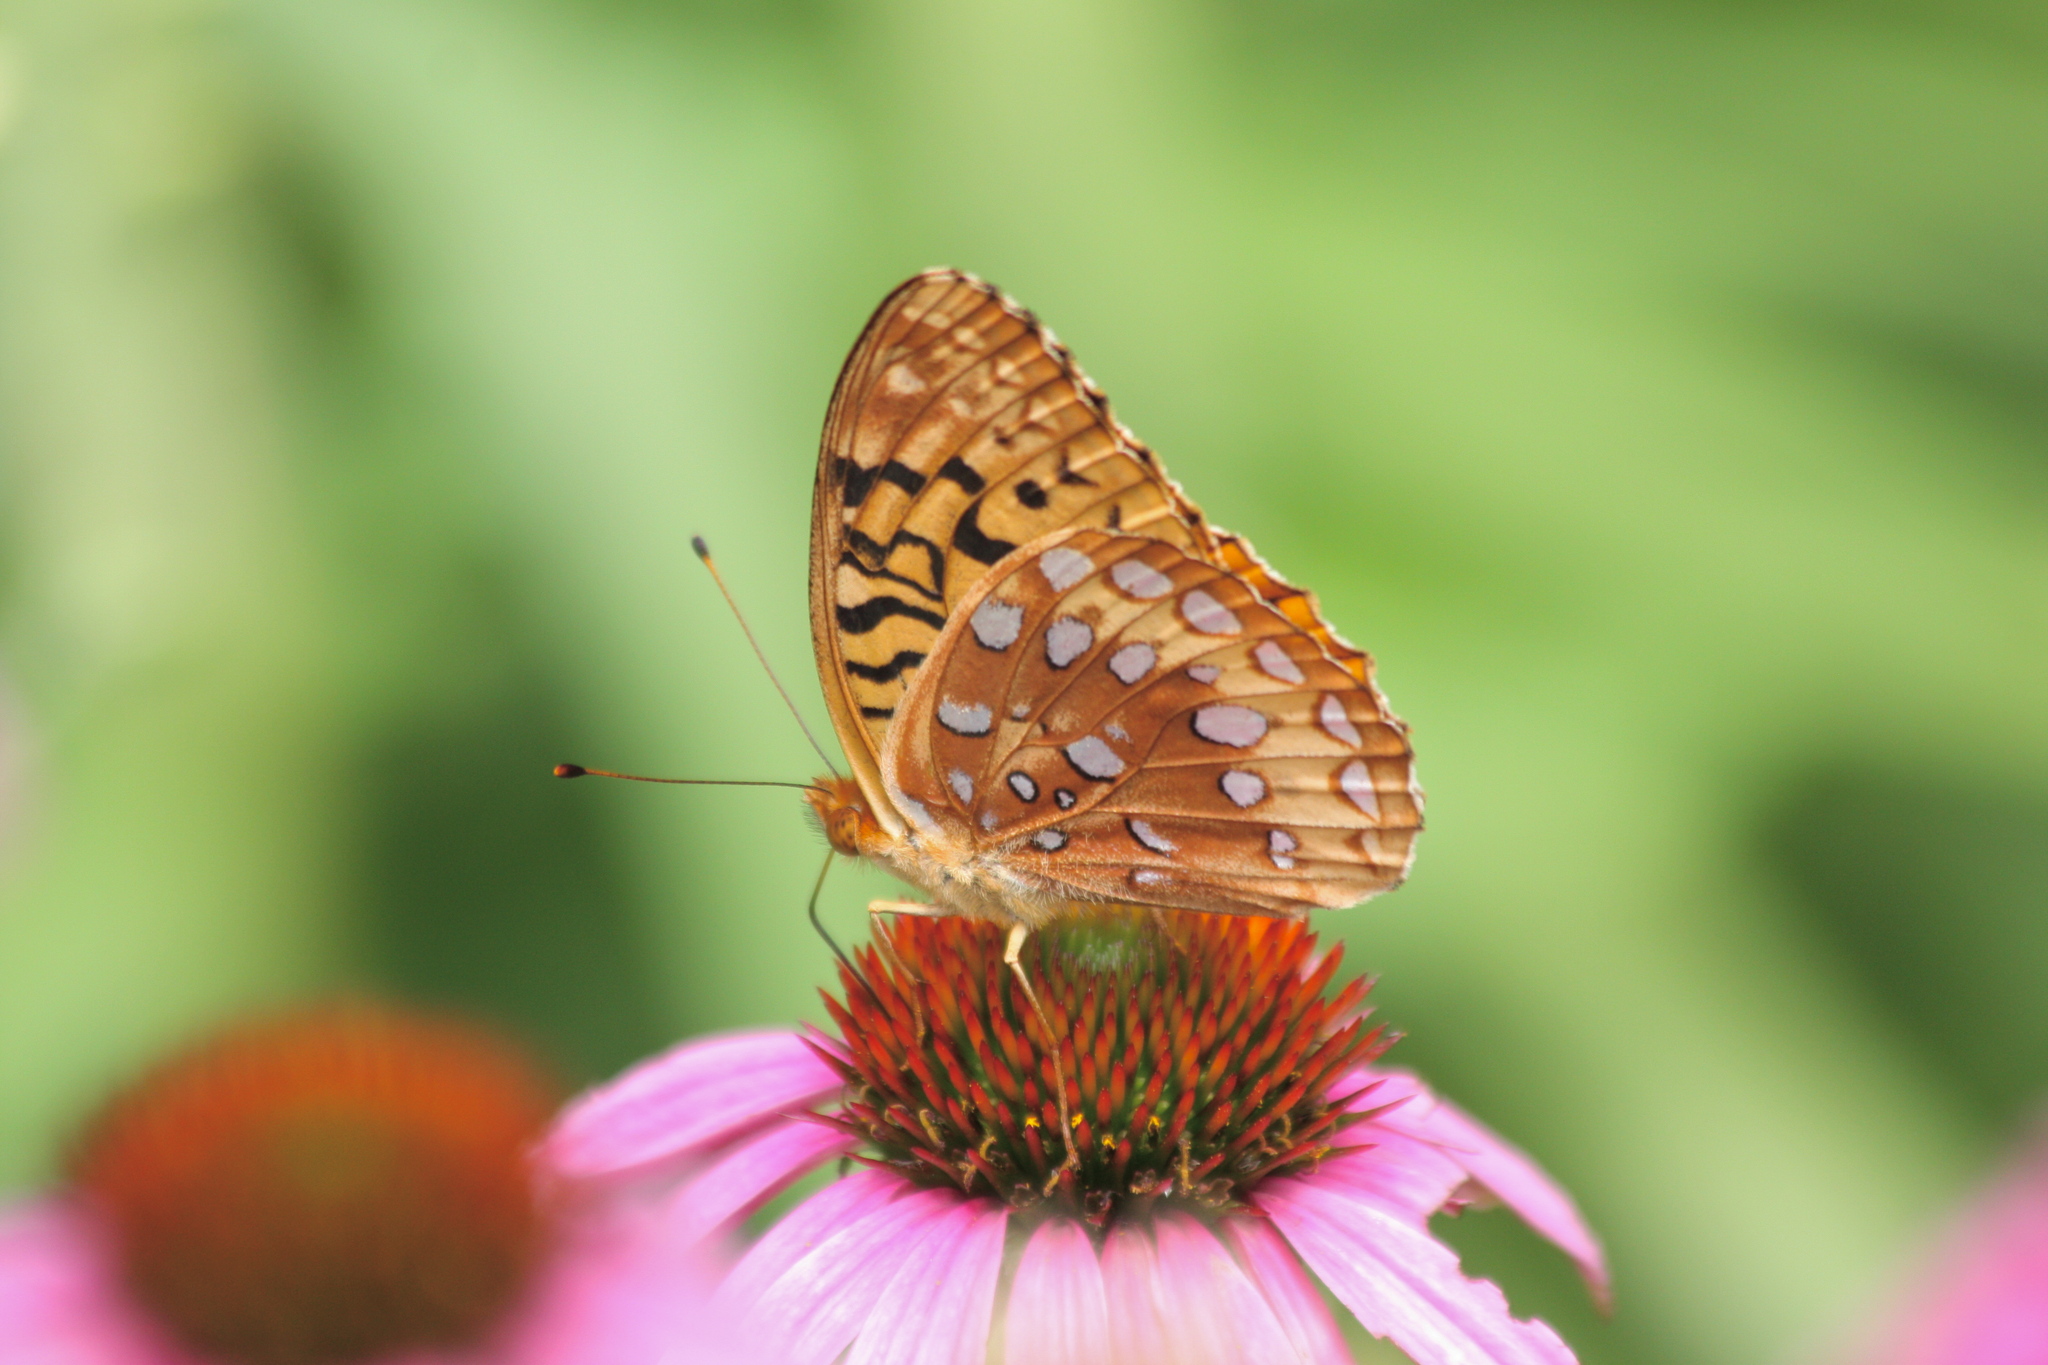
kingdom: Animalia
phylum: Arthropoda
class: Insecta
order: Lepidoptera
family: Nymphalidae
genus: Speyeria
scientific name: Speyeria cybele
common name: Great spangled fritillary
